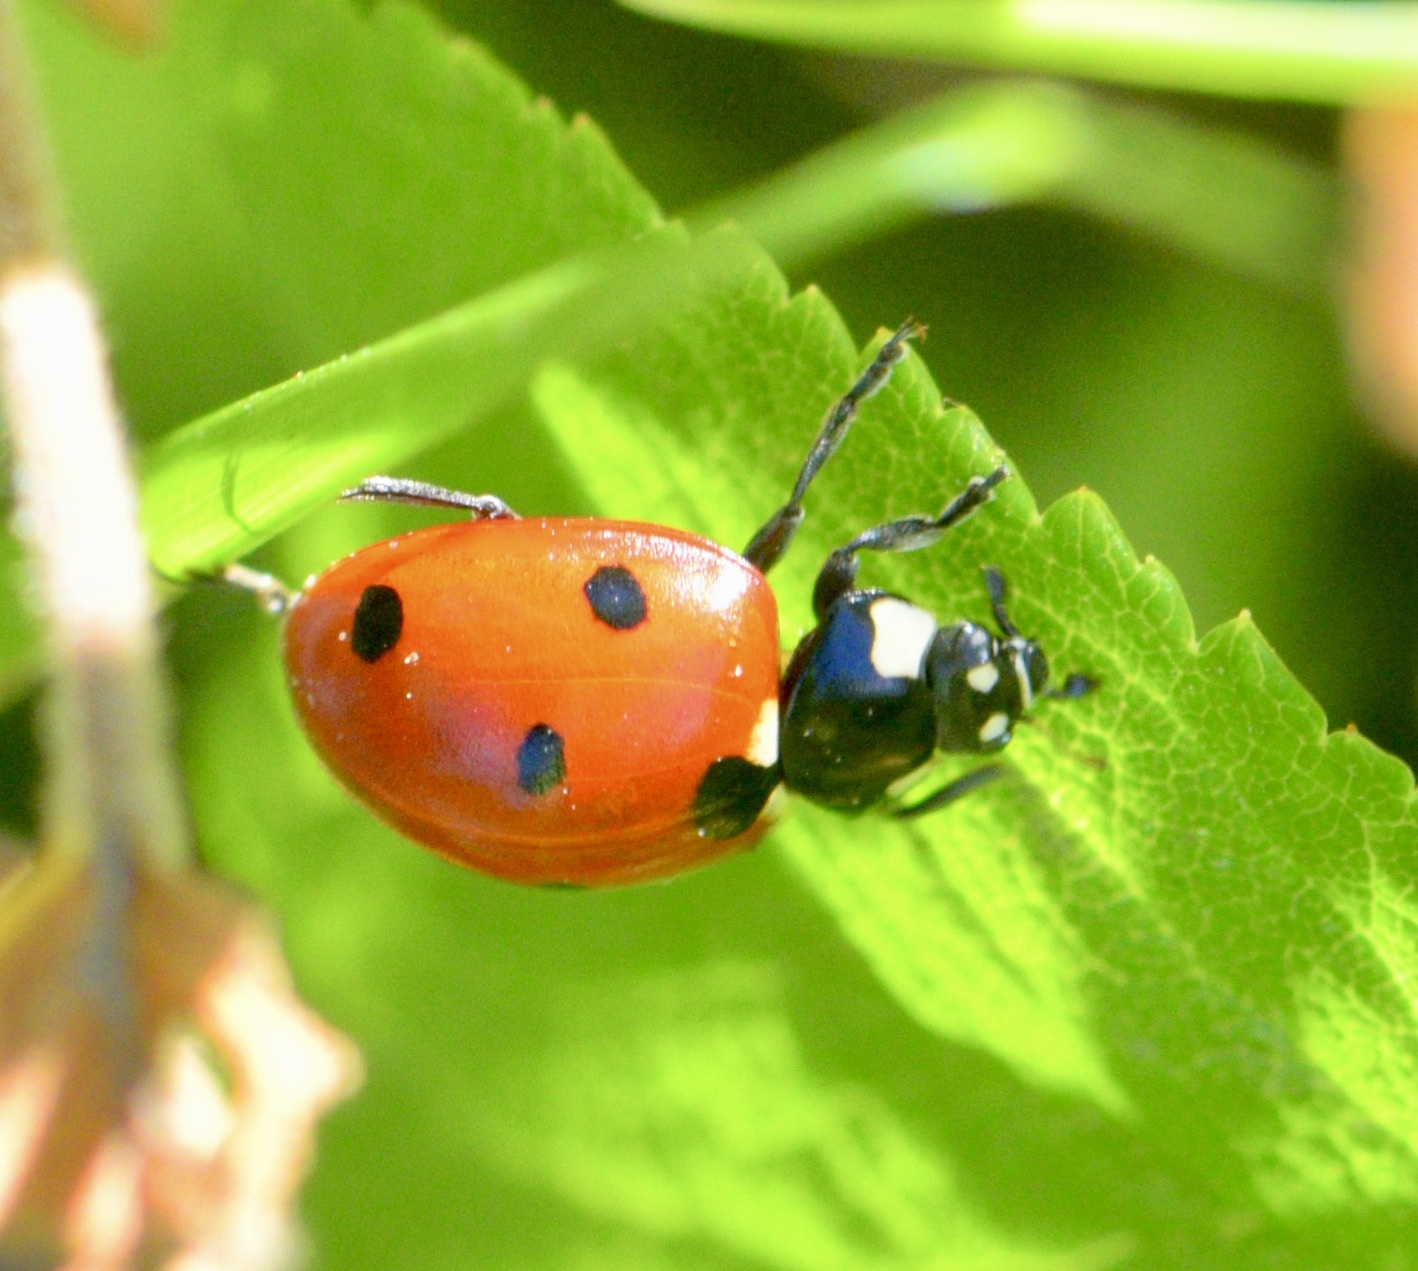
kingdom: Animalia
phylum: Arthropoda
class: Insecta
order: Coleoptera
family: Coccinellidae
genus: Coccinella
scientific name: Coccinella septempunctata
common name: Sevenspotted lady beetle
